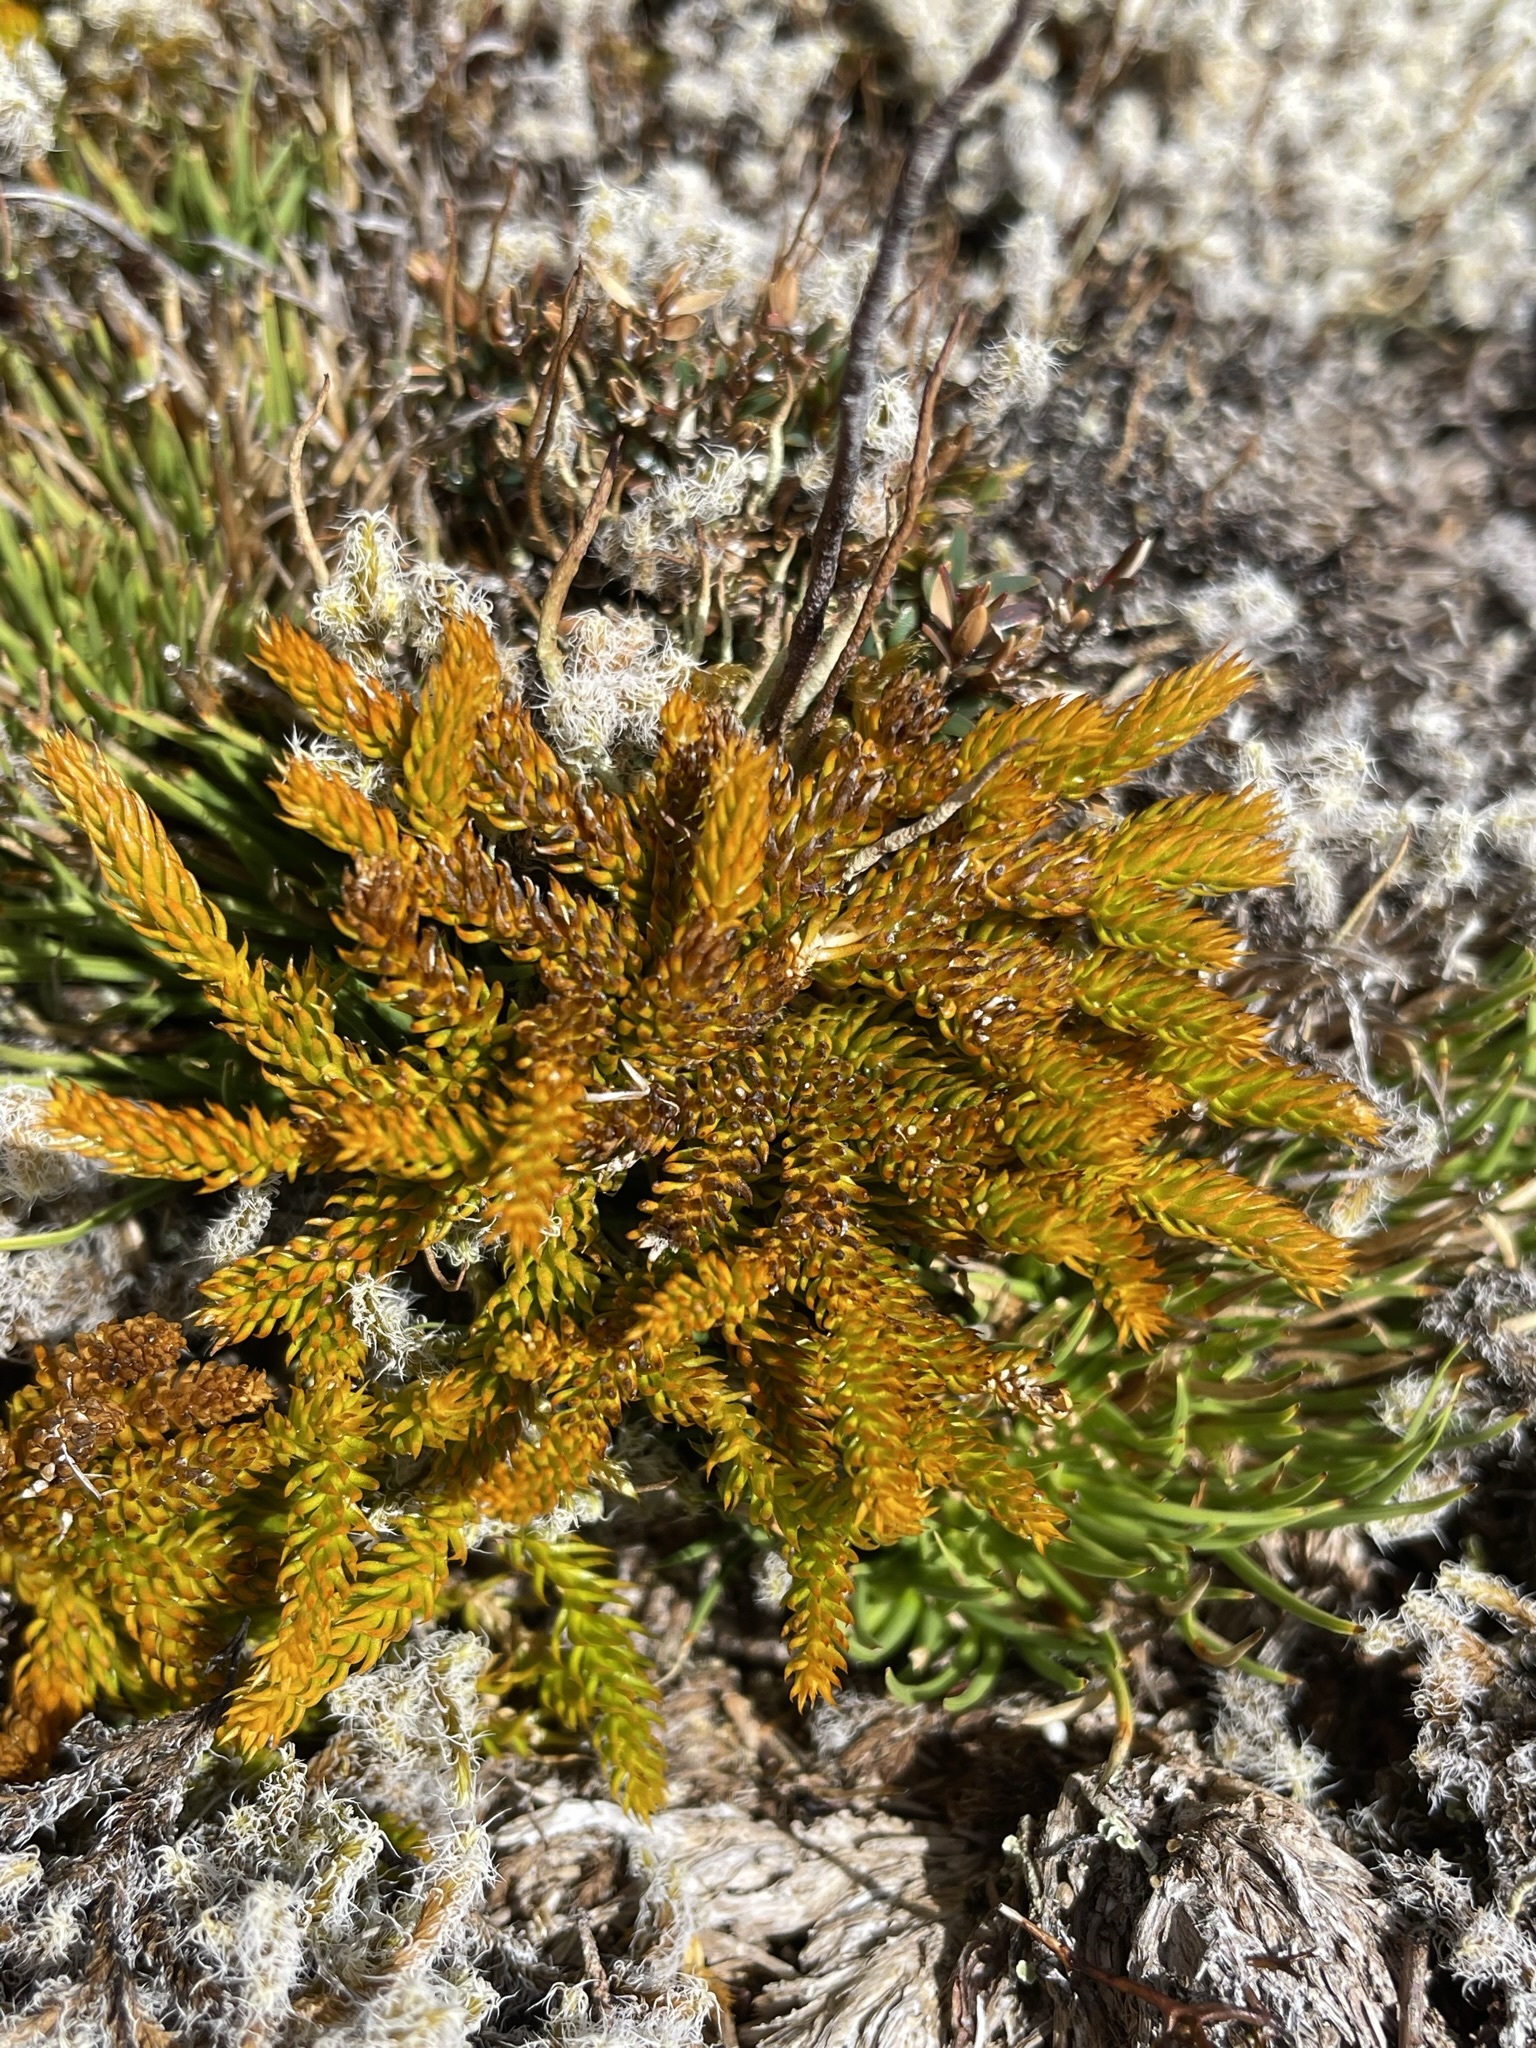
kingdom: Plantae
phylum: Tracheophyta
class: Lycopodiopsida
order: Lycopodiales
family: Lycopodiaceae
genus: Austrolycopodium
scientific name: Austrolycopodium fastigiatum
